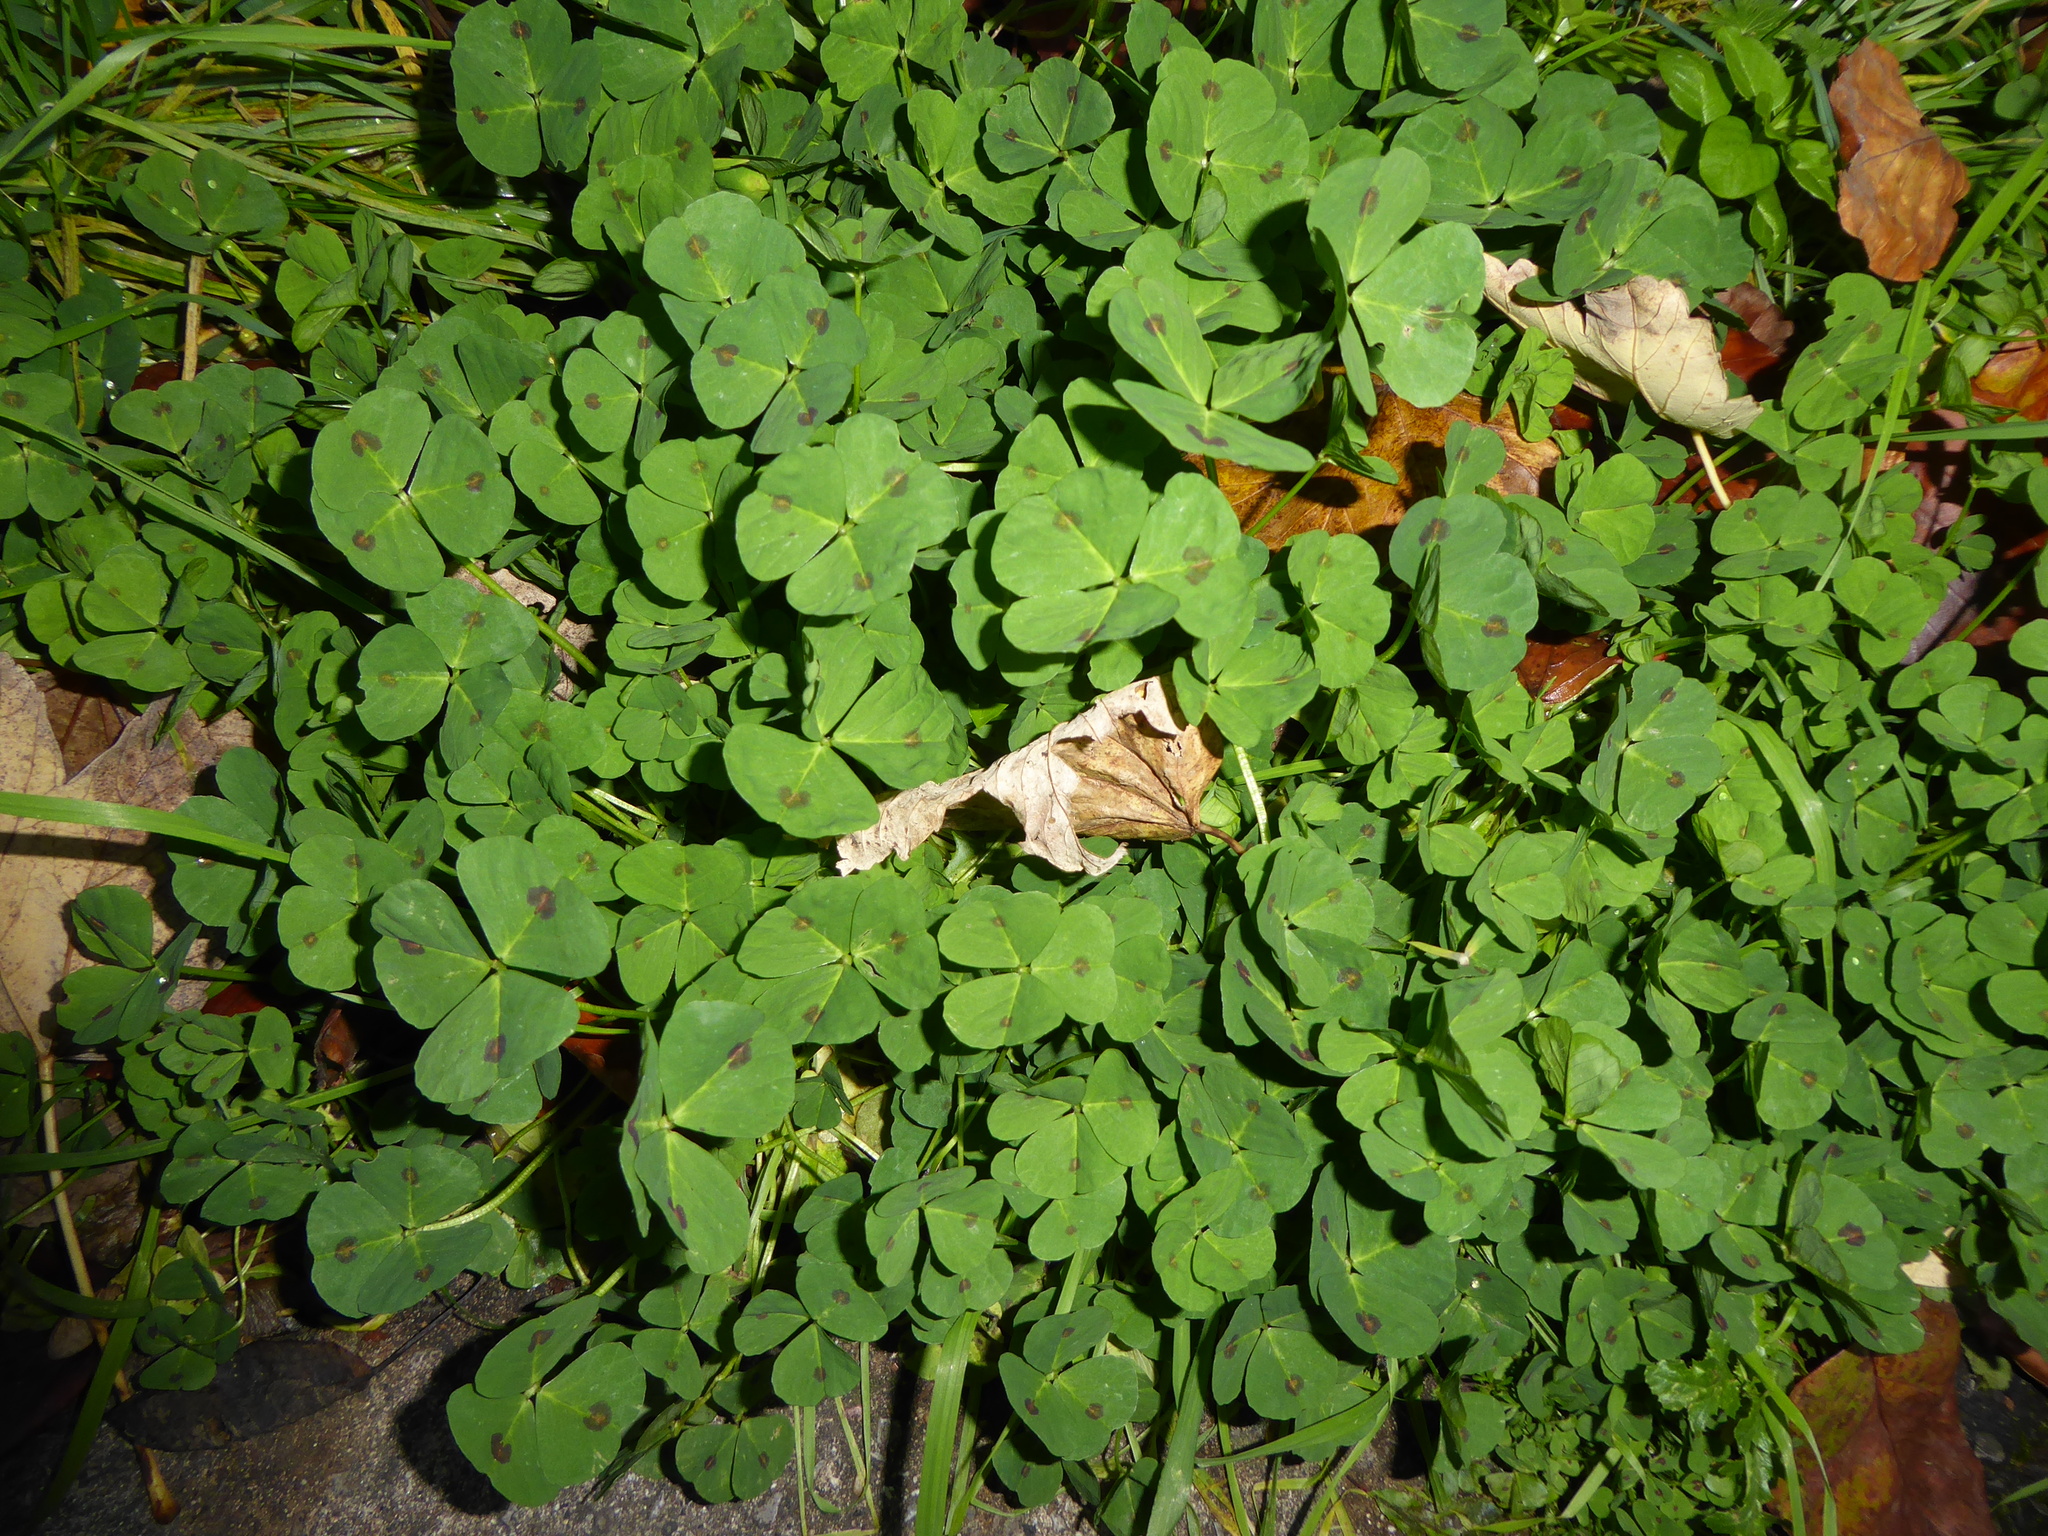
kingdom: Plantae
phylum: Tracheophyta
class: Magnoliopsida
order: Fabales
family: Fabaceae
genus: Medicago
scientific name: Medicago arabica
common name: Spotted medick
